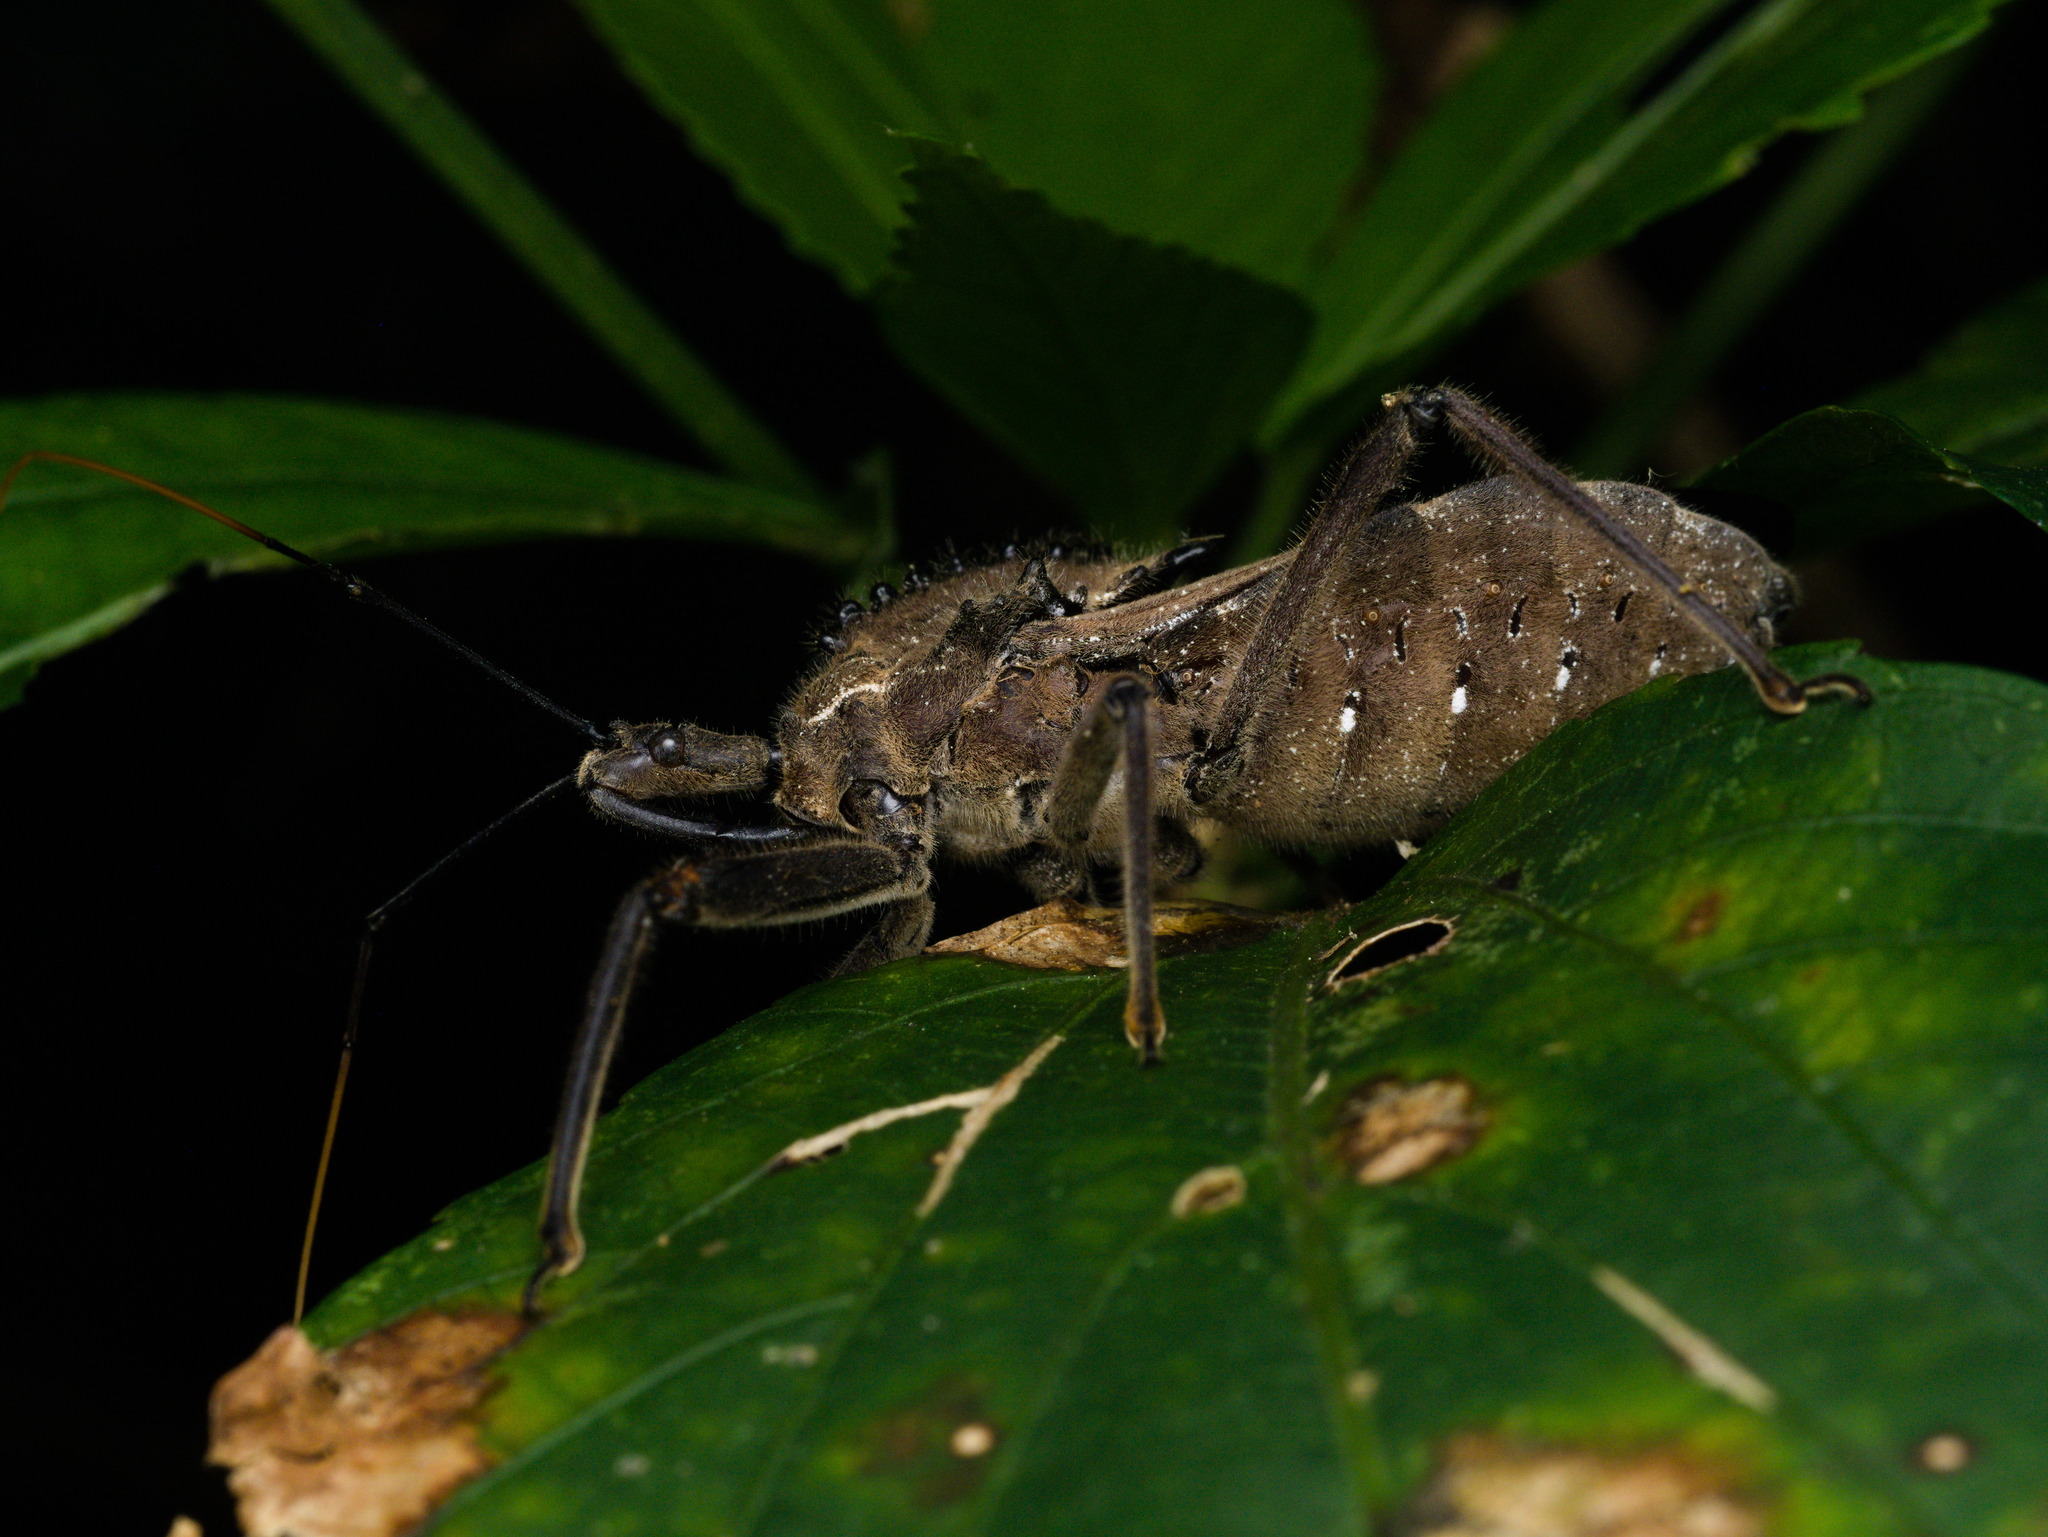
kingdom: Animalia
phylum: Arthropoda
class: Insecta
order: Hemiptera
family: Reduviidae
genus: Arilus
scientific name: Arilus depressicollis
